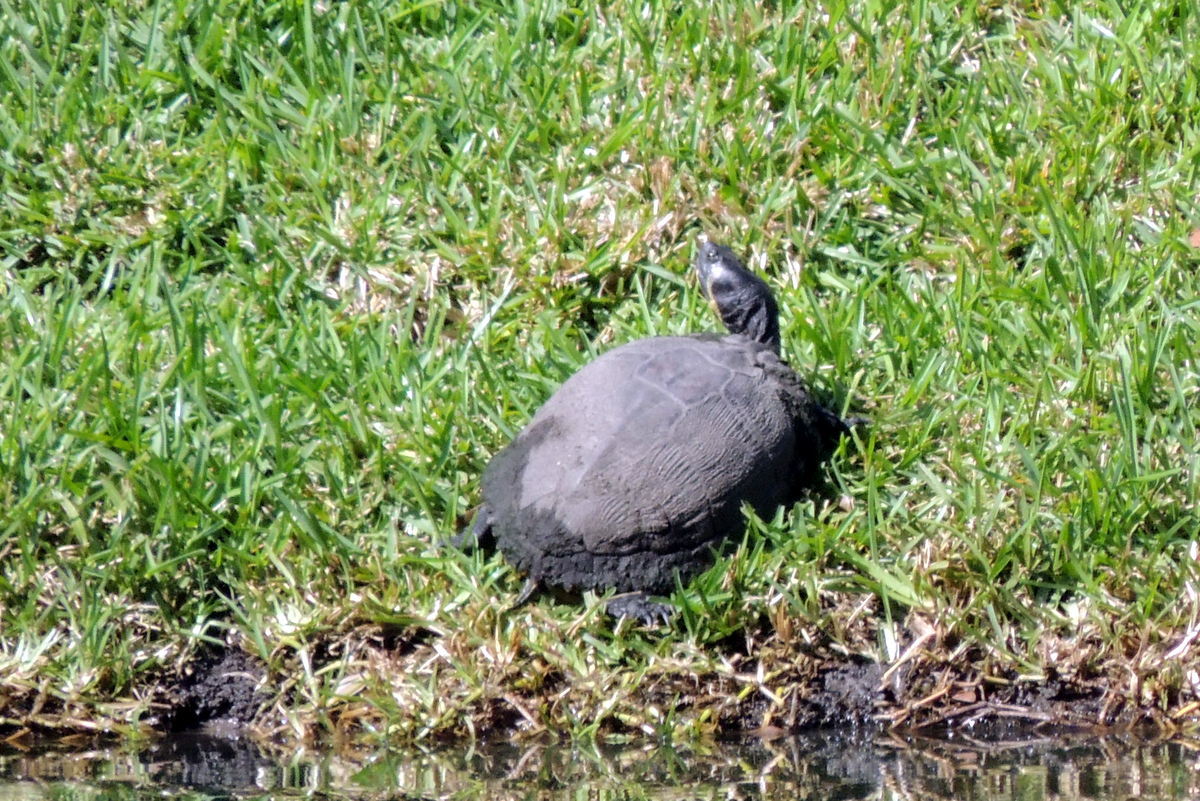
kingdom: Animalia
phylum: Chordata
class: Testudines
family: Emydidae
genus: Trachemys
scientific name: Trachemys scripta
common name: Slider
